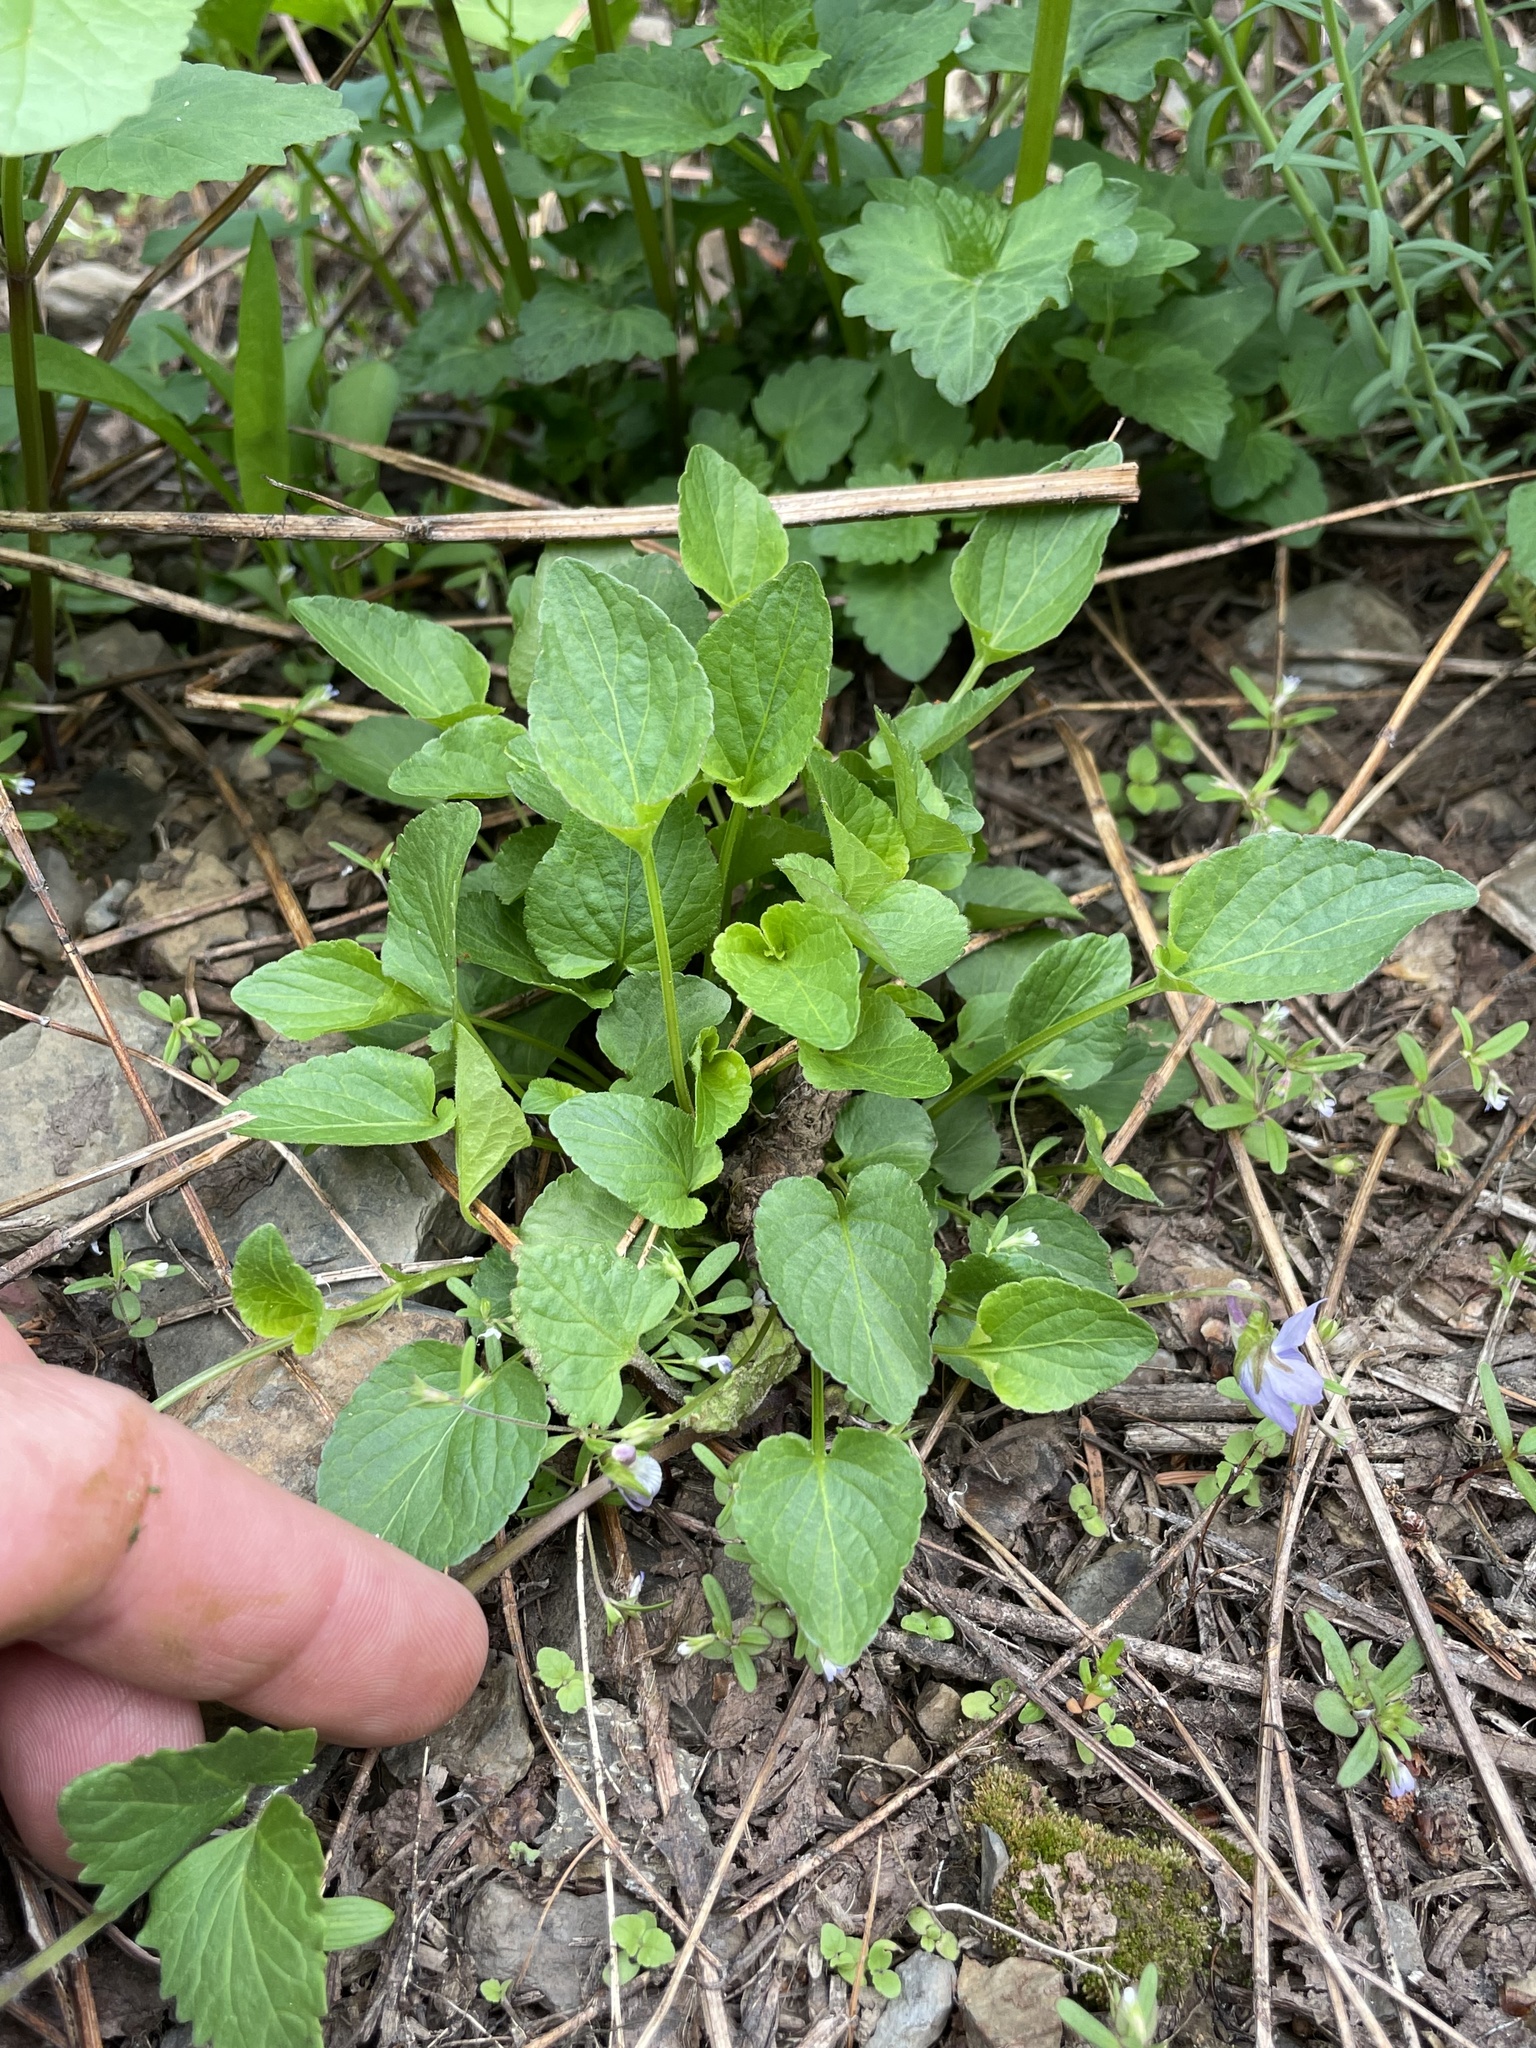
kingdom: Plantae
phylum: Tracheophyta
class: Magnoliopsida
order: Malpighiales
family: Violaceae
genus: Viola
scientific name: Viola adunca
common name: Sand violet
